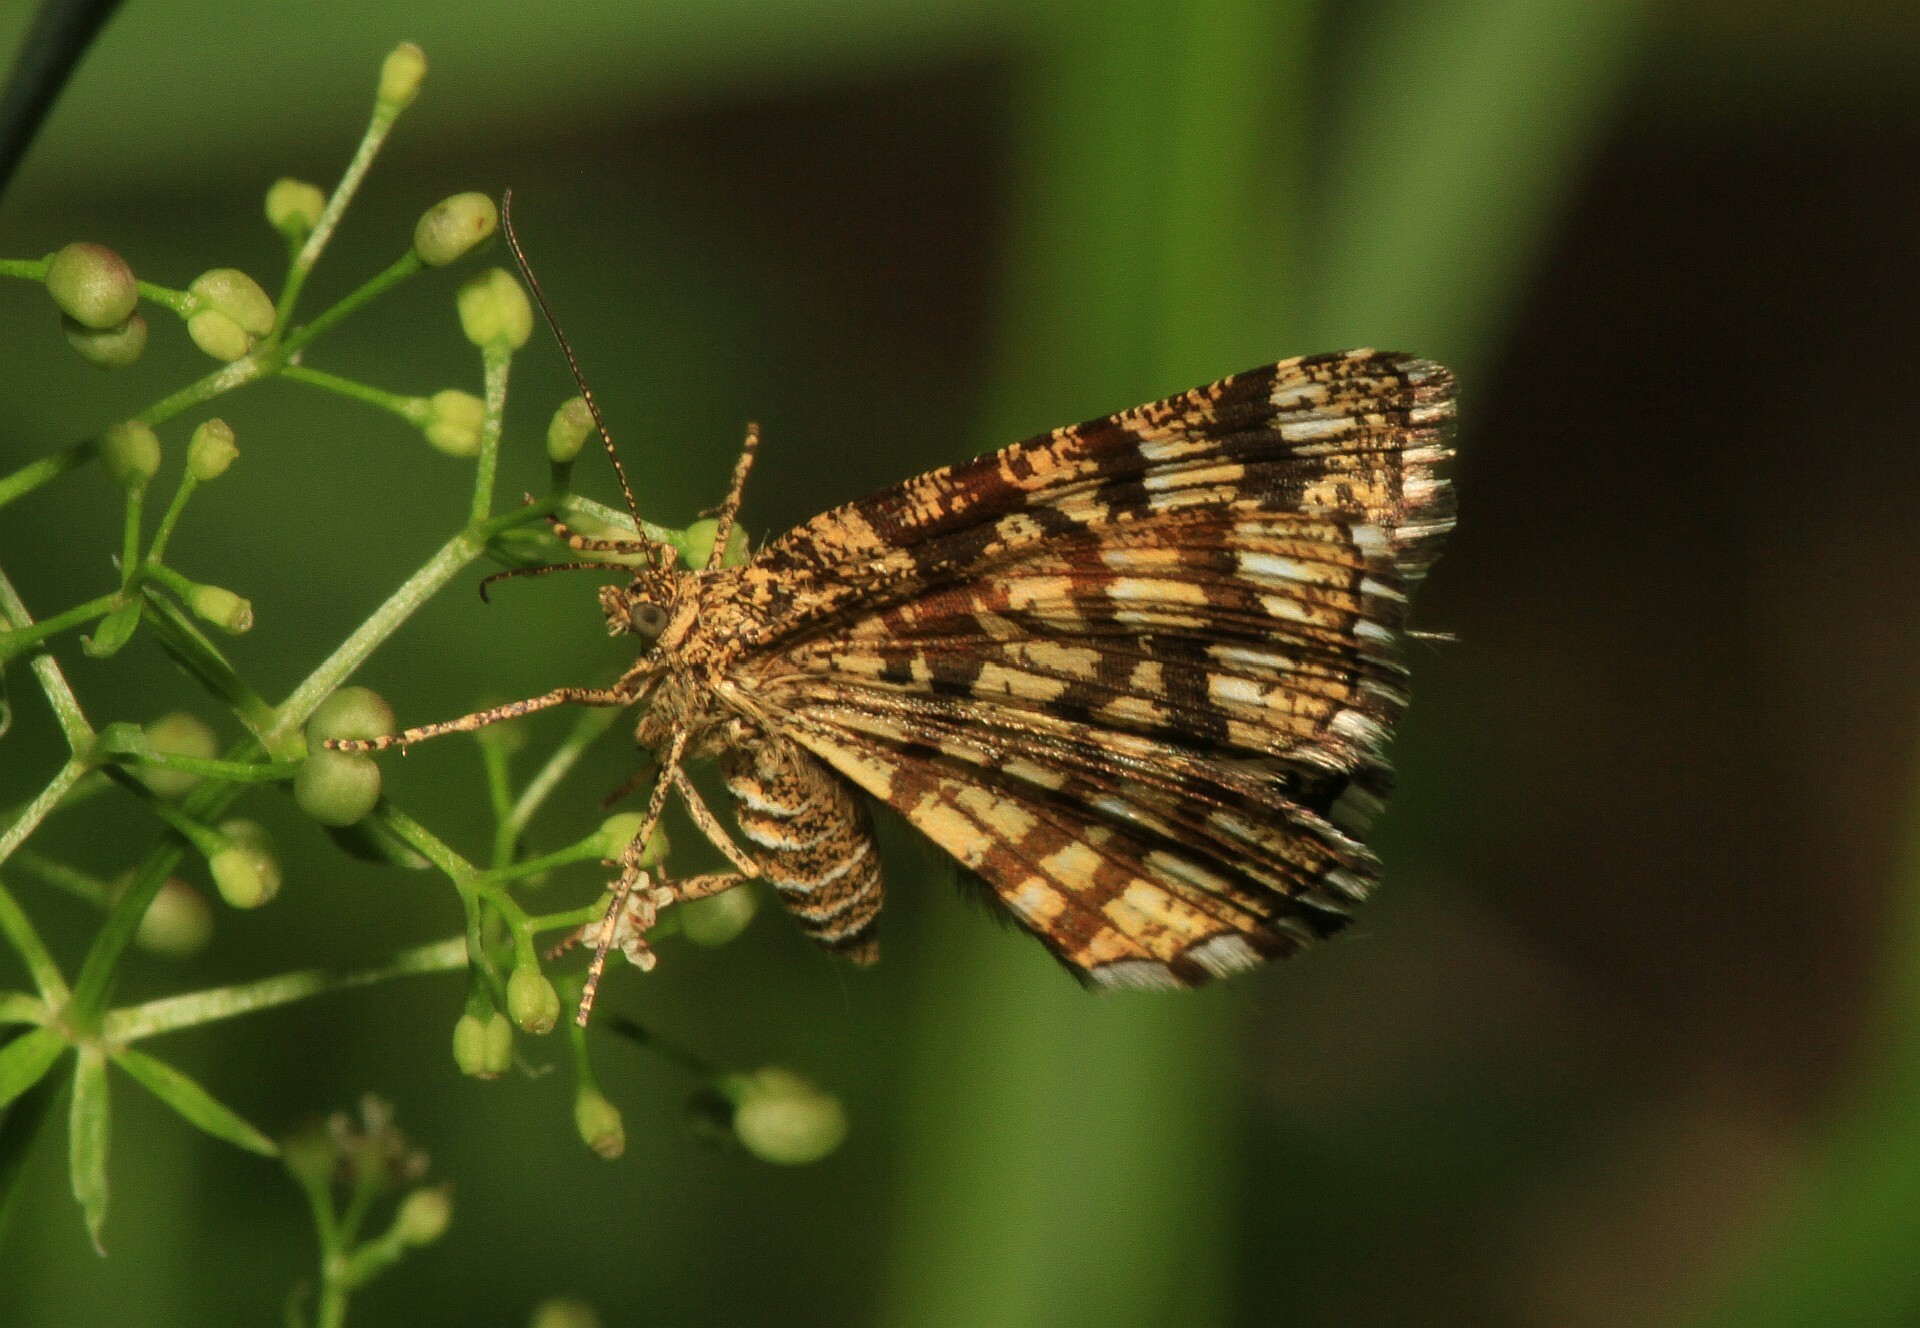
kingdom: Animalia
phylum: Arthropoda
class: Insecta
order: Lepidoptera
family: Geometridae
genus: Chiasmia
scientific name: Chiasmia clathrata
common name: Latticed heath
